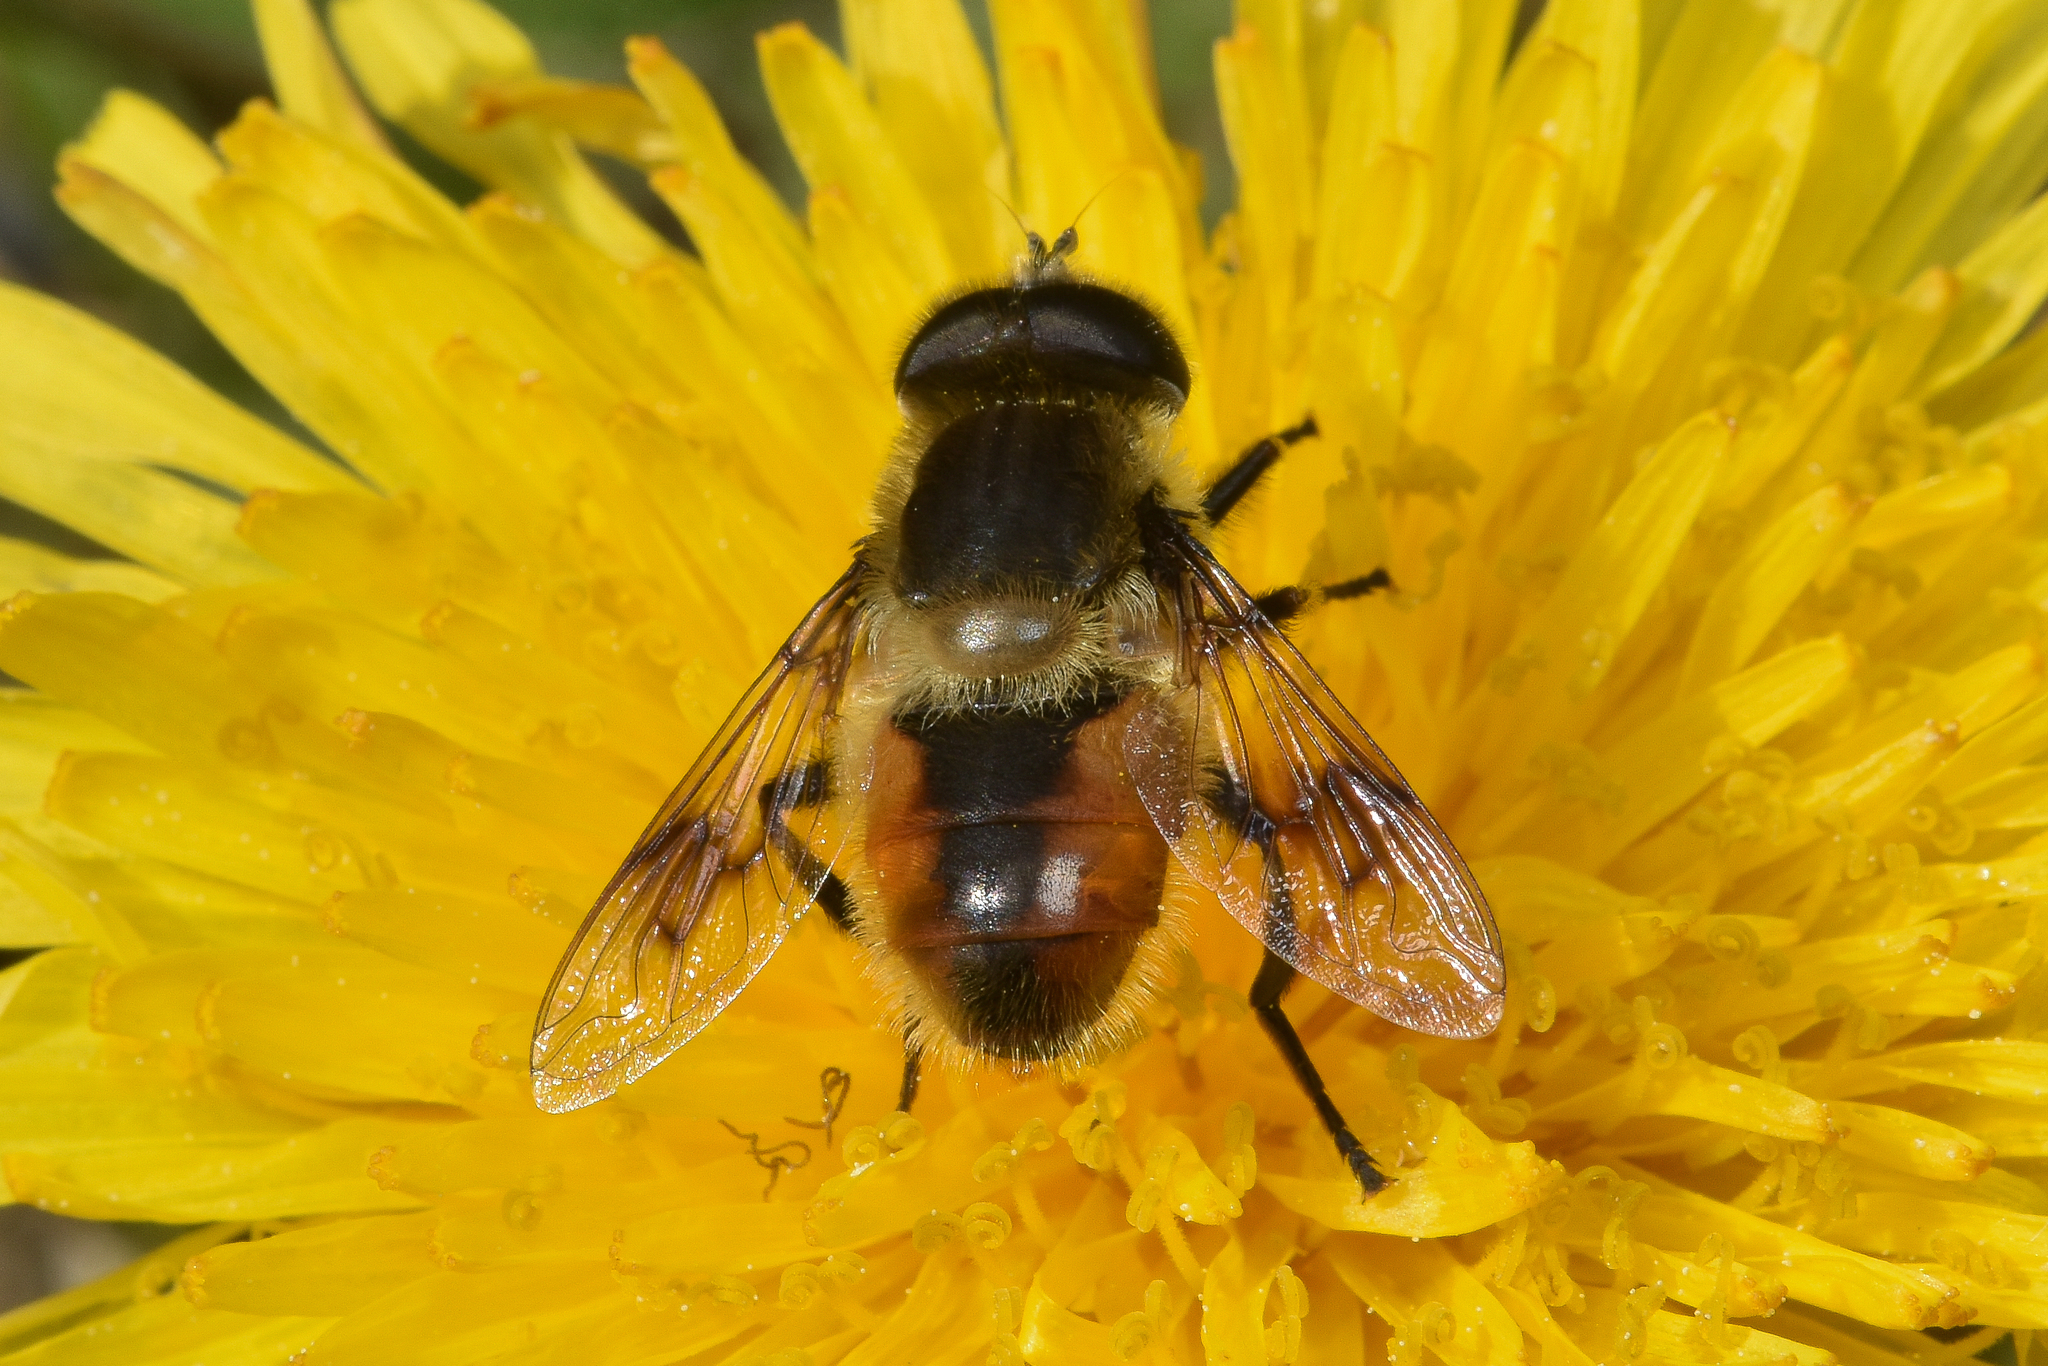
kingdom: Animalia
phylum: Arthropoda
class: Insecta
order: Diptera
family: Syrphidae
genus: Eristalis
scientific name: Eristalis anthophorina
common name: Orange-spotted drone fly
